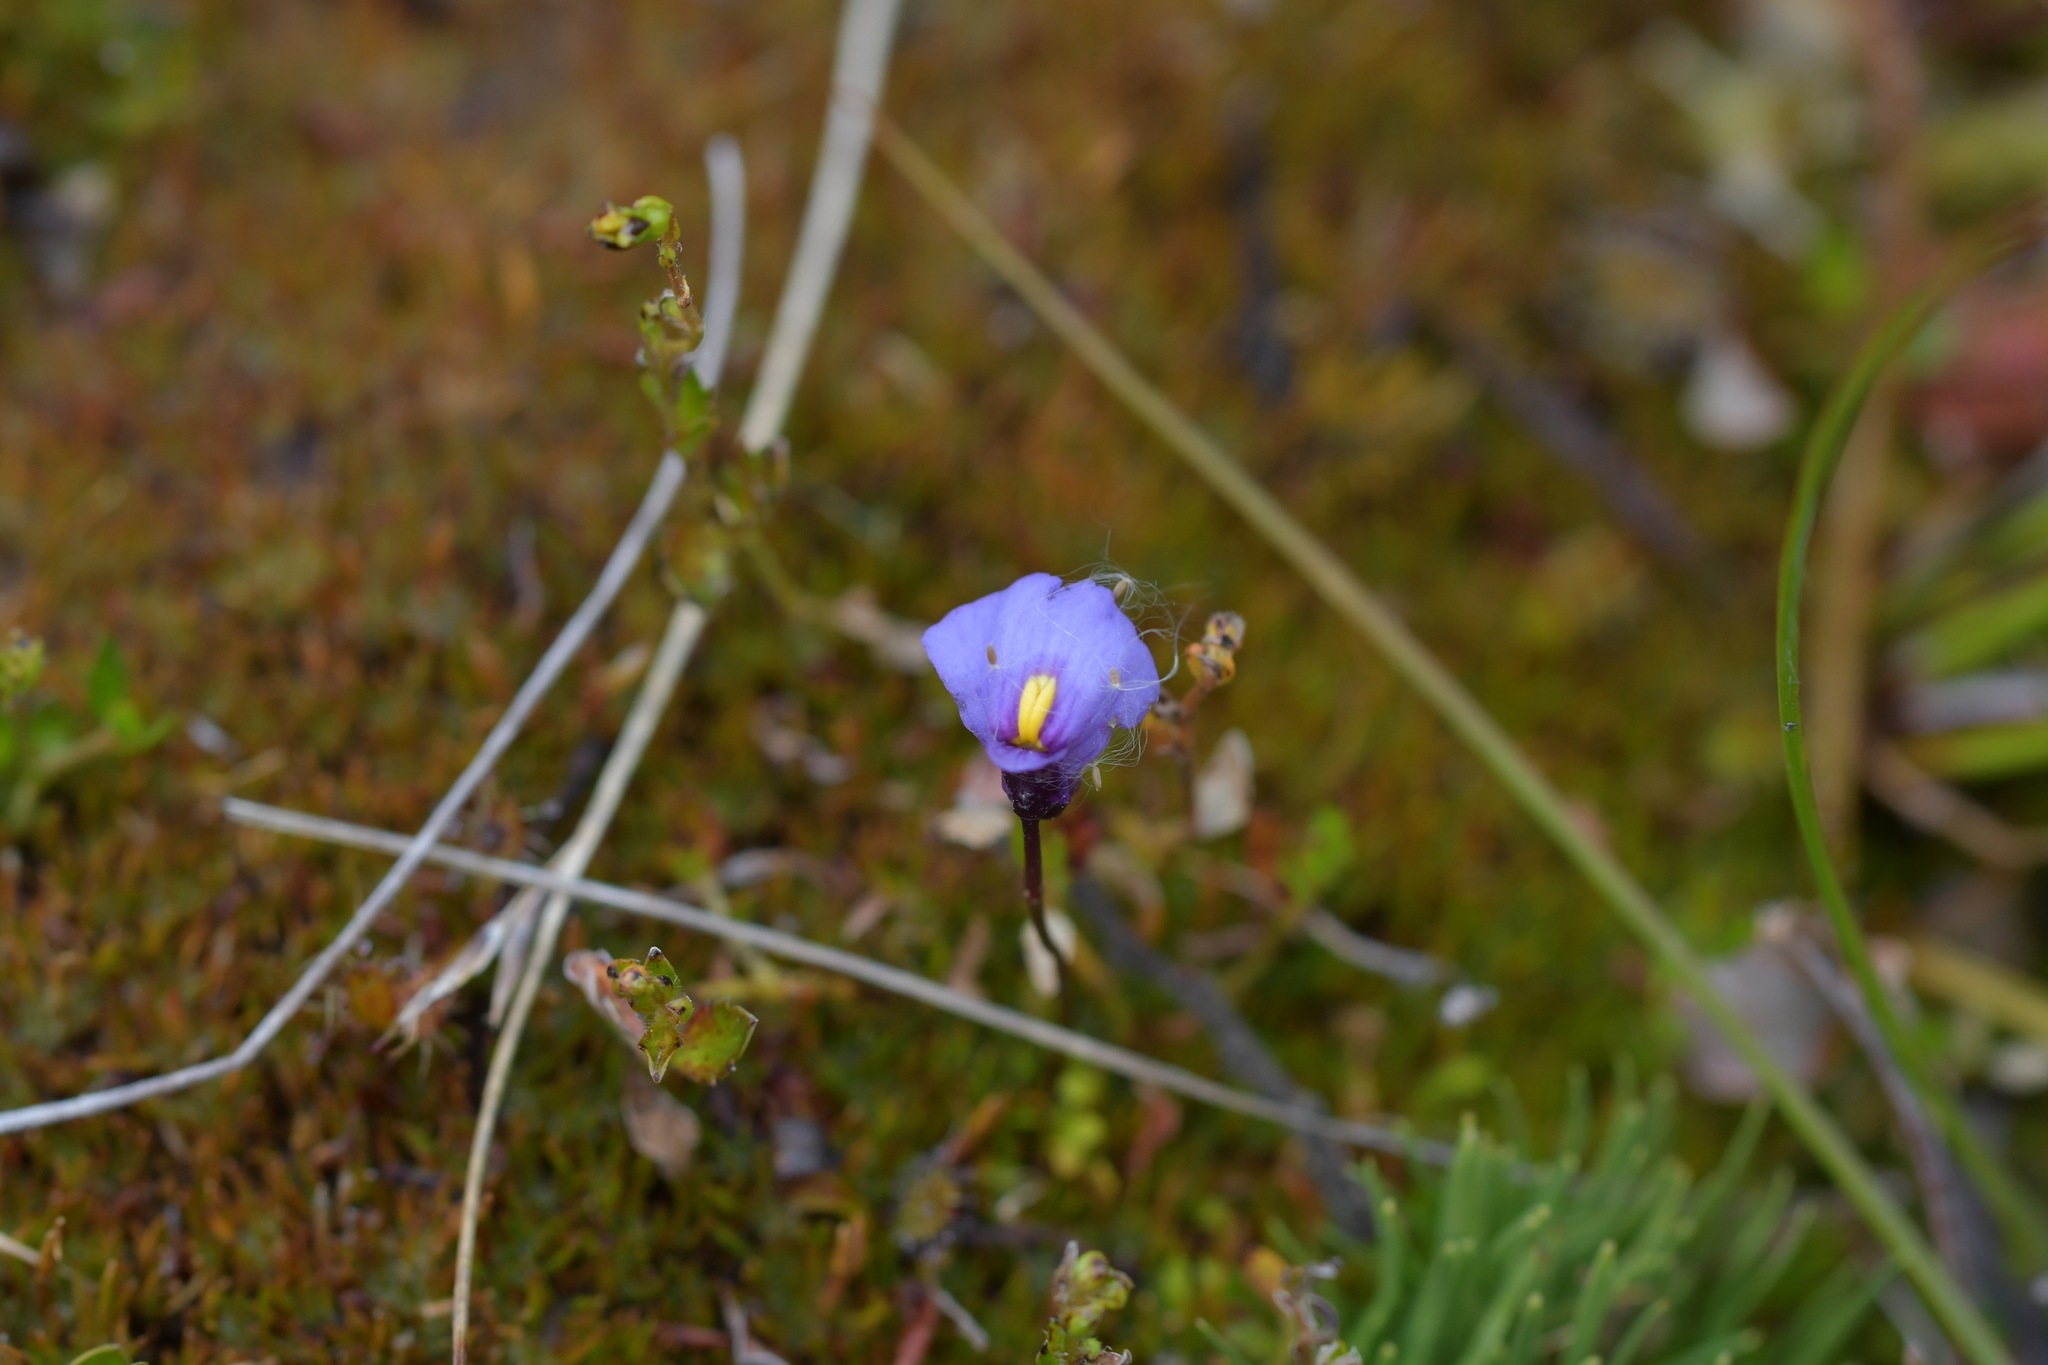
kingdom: Plantae
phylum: Tracheophyta
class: Magnoliopsida
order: Lamiales
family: Lentibulariaceae
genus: Utricularia
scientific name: Utricularia dichotoma
